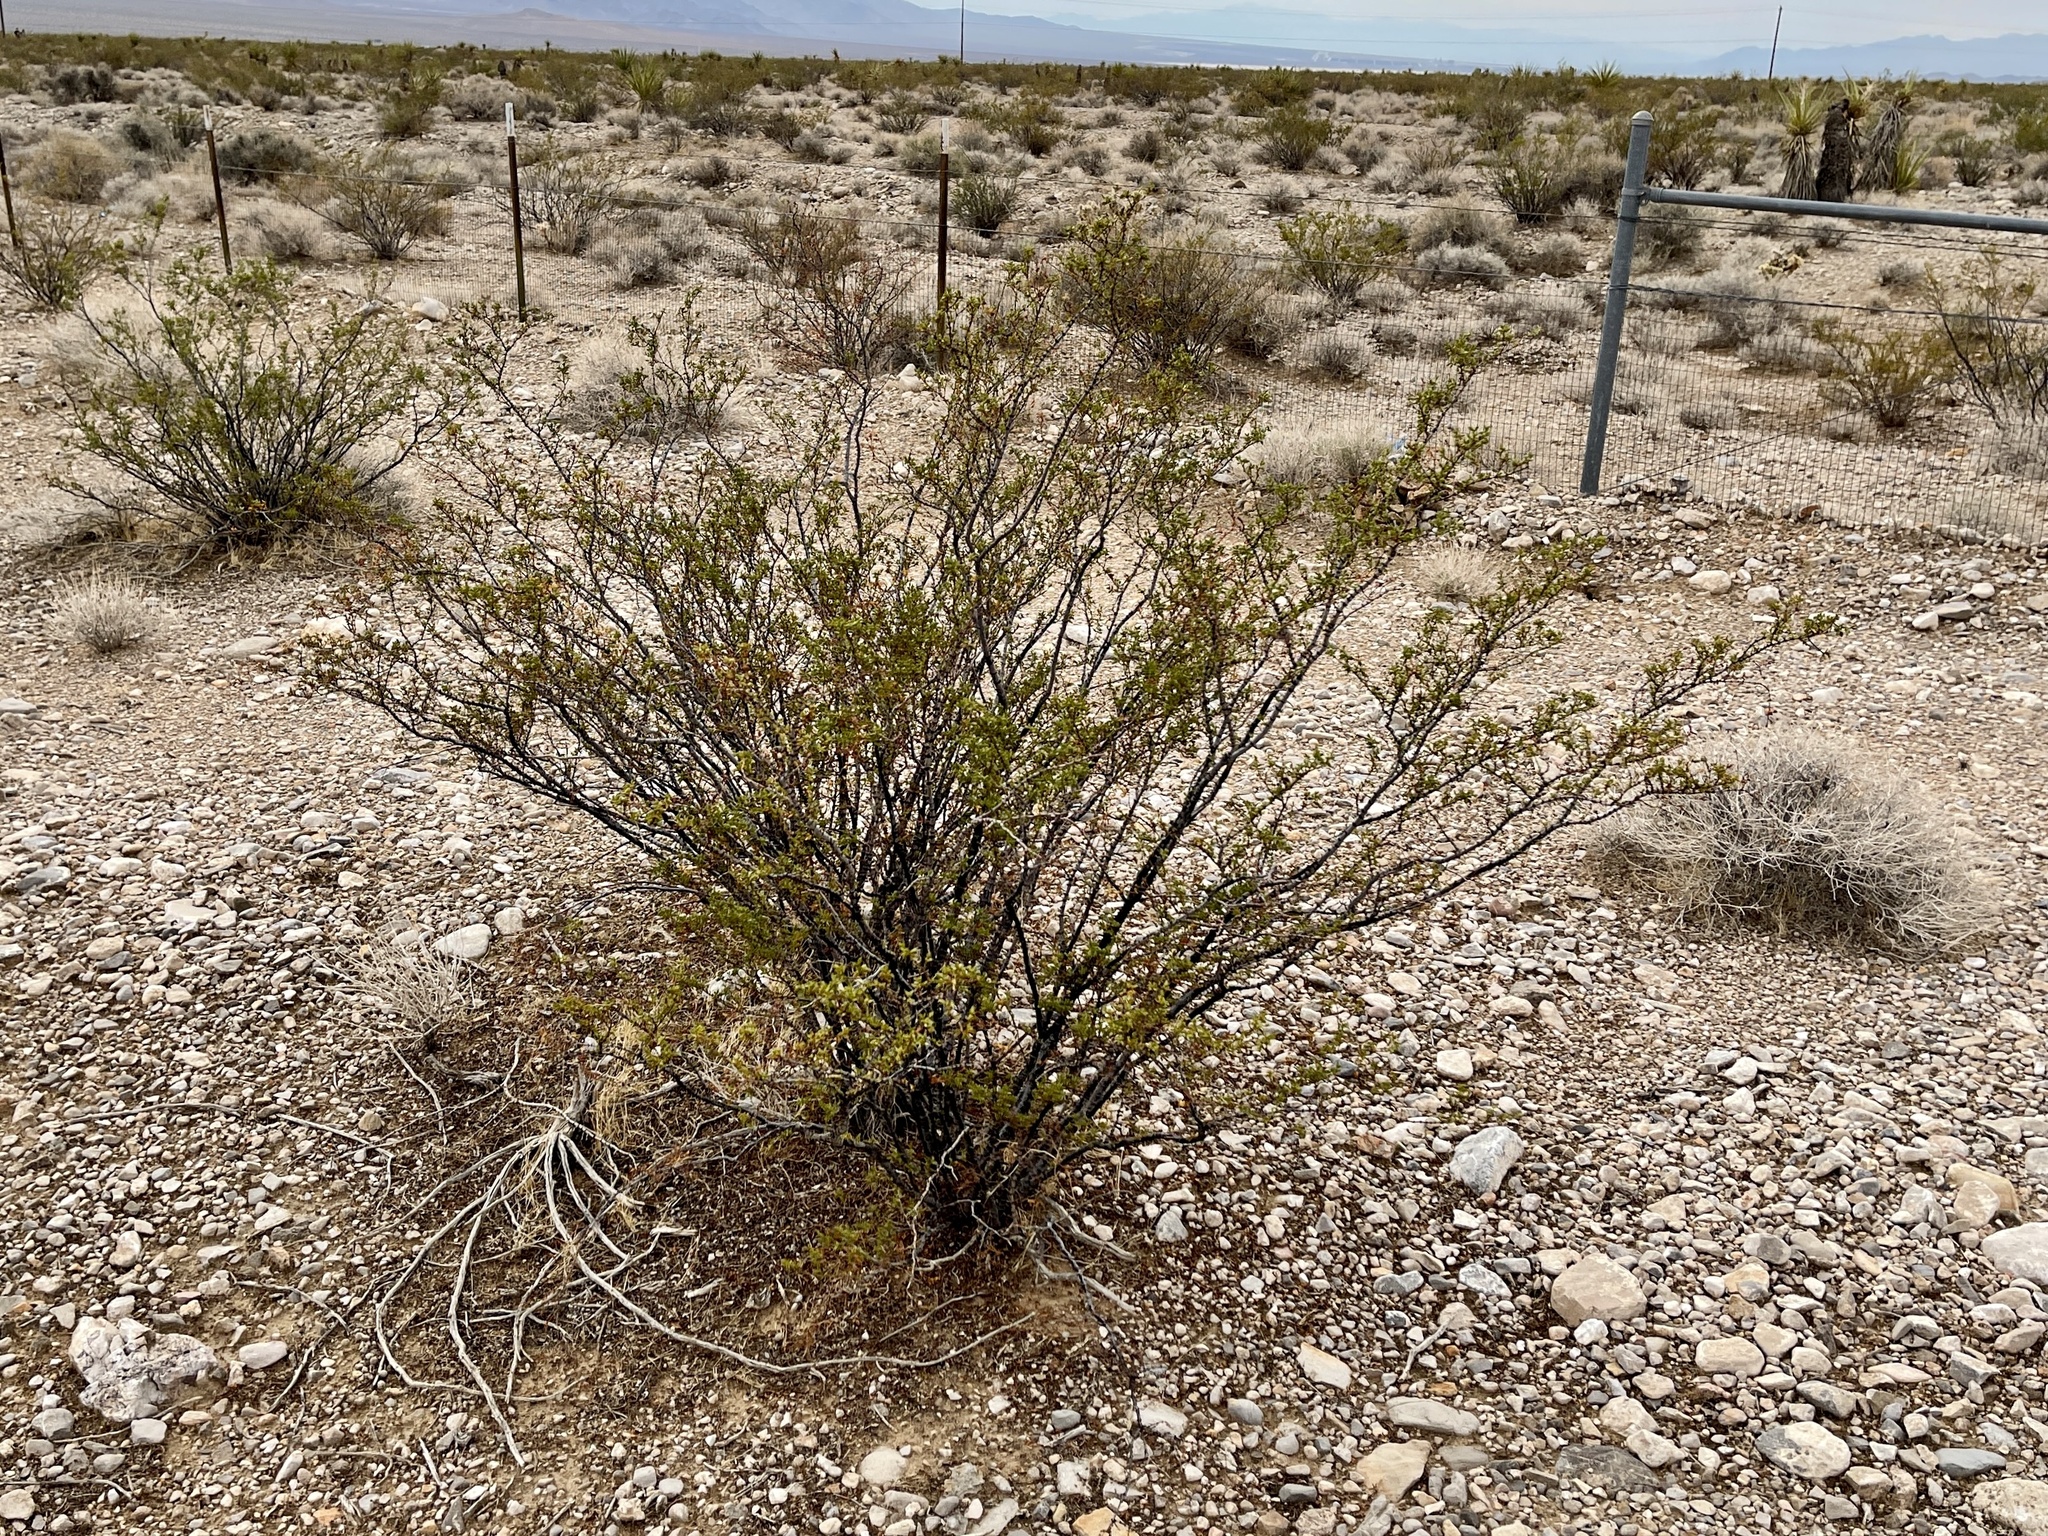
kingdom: Plantae
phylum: Tracheophyta
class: Magnoliopsida
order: Zygophyllales
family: Zygophyllaceae
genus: Larrea
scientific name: Larrea tridentata
